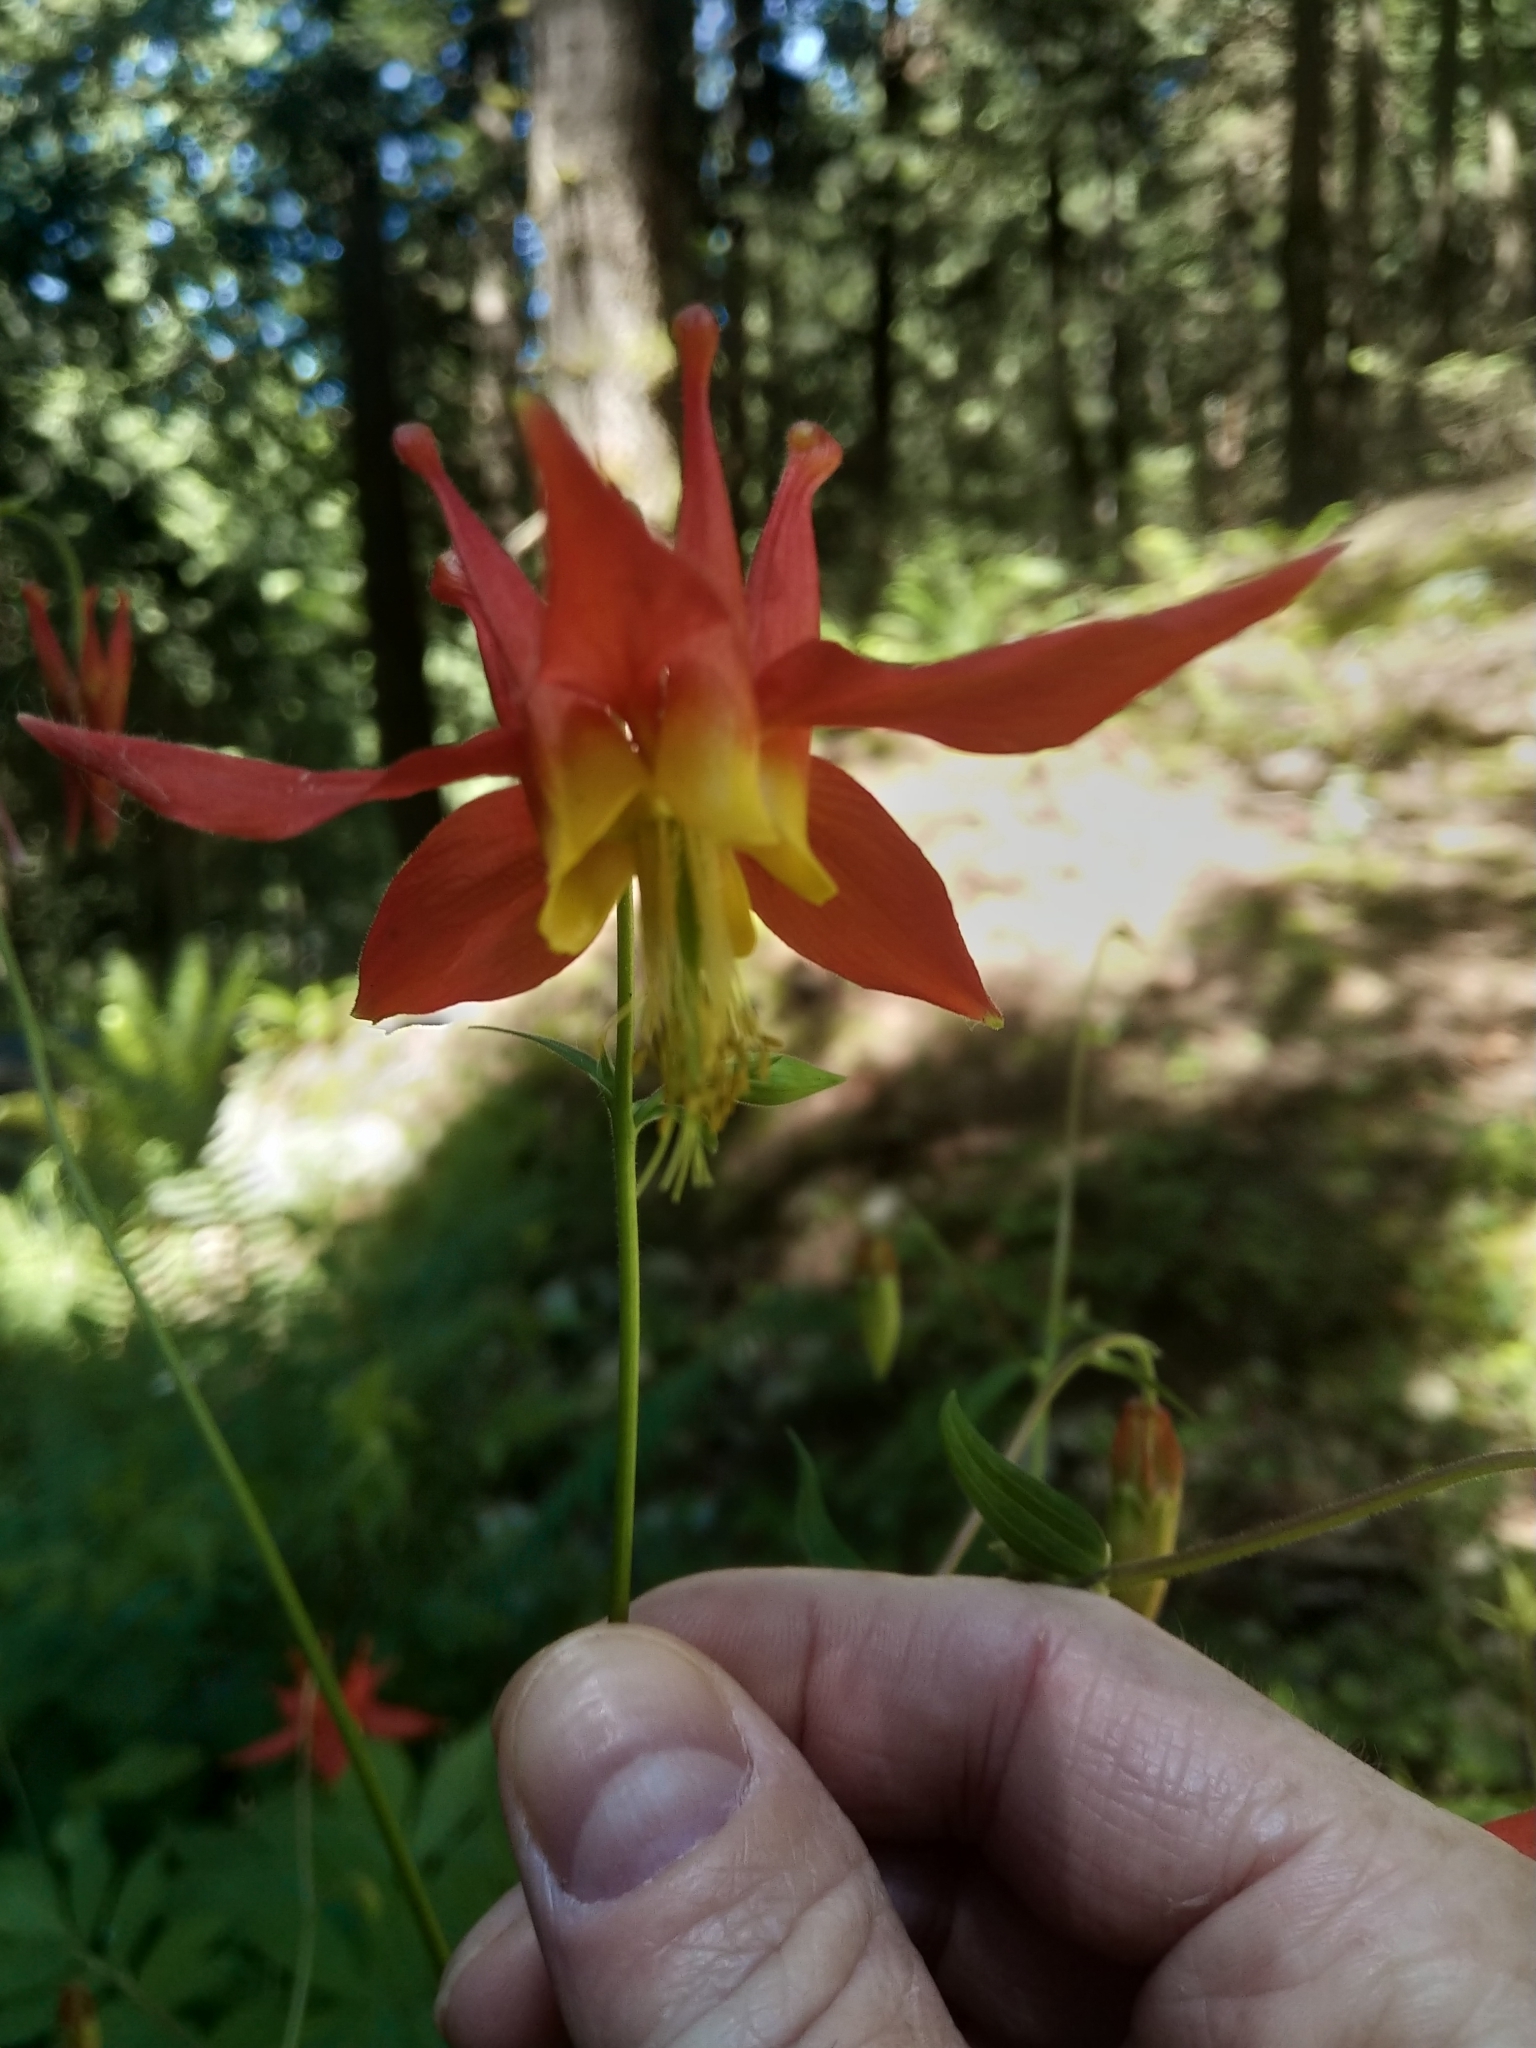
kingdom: Plantae
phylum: Tracheophyta
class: Magnoliopsida
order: Ranunculales
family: Ranunculaceae
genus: Aquilegia
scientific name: Aquilegia formosa
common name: Sitka columbine
